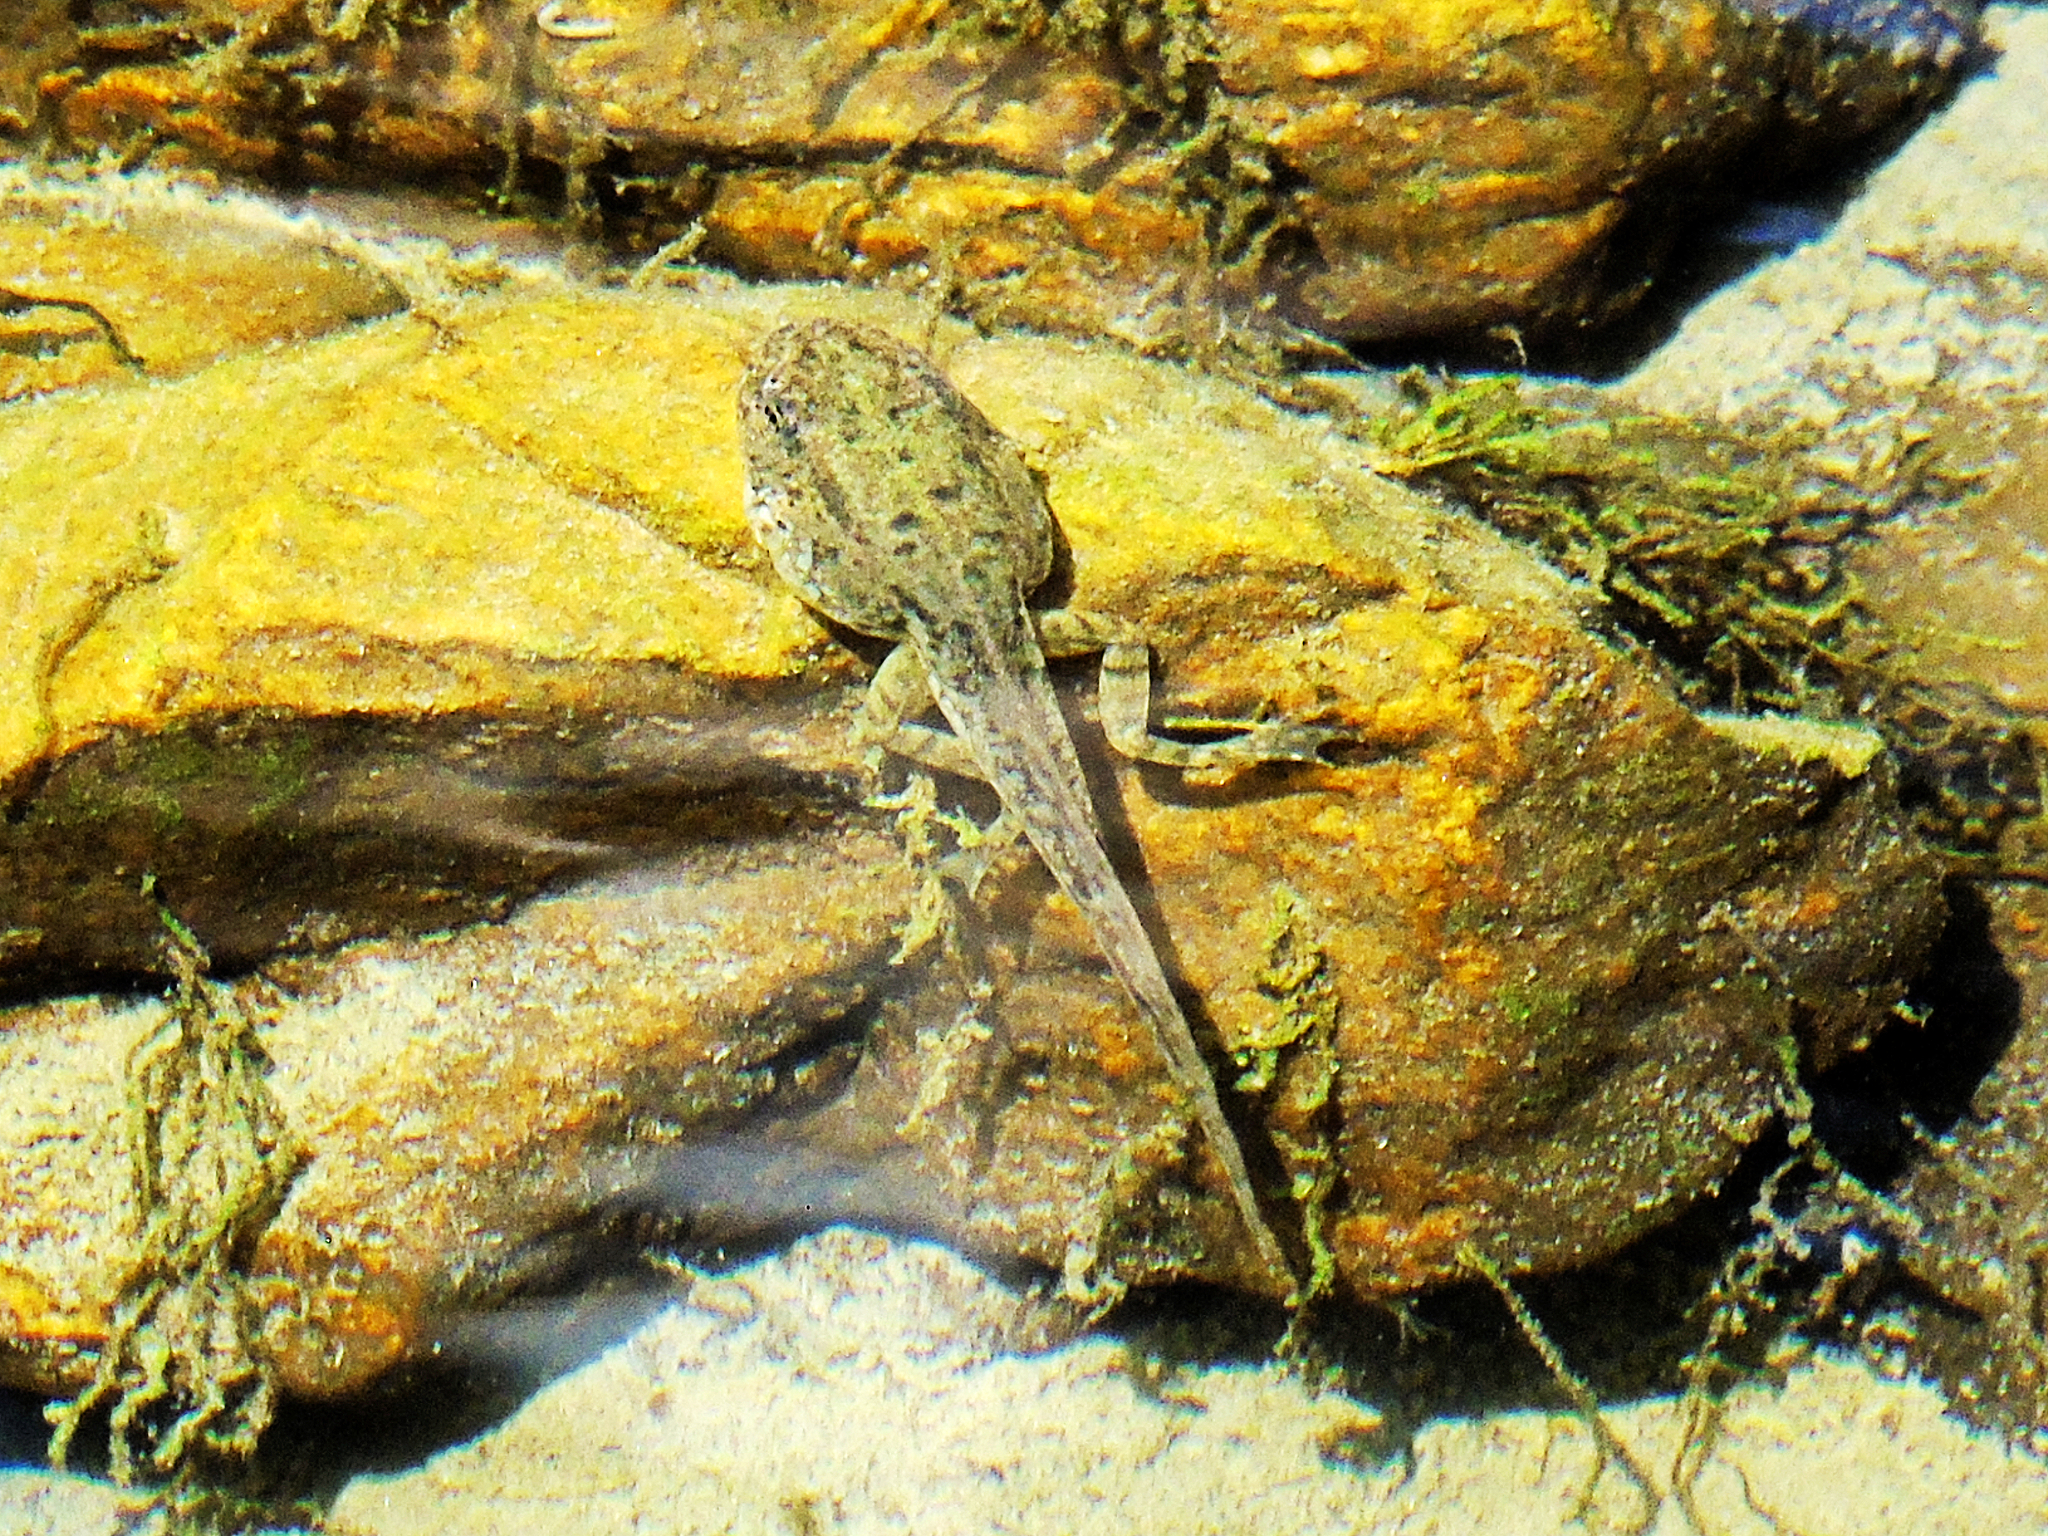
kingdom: Animalia
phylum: Chordata
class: Amphibia
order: Anura
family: Ranidae
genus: Pelophylax
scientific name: Pelophylax ridibundus
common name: Marsh frog
